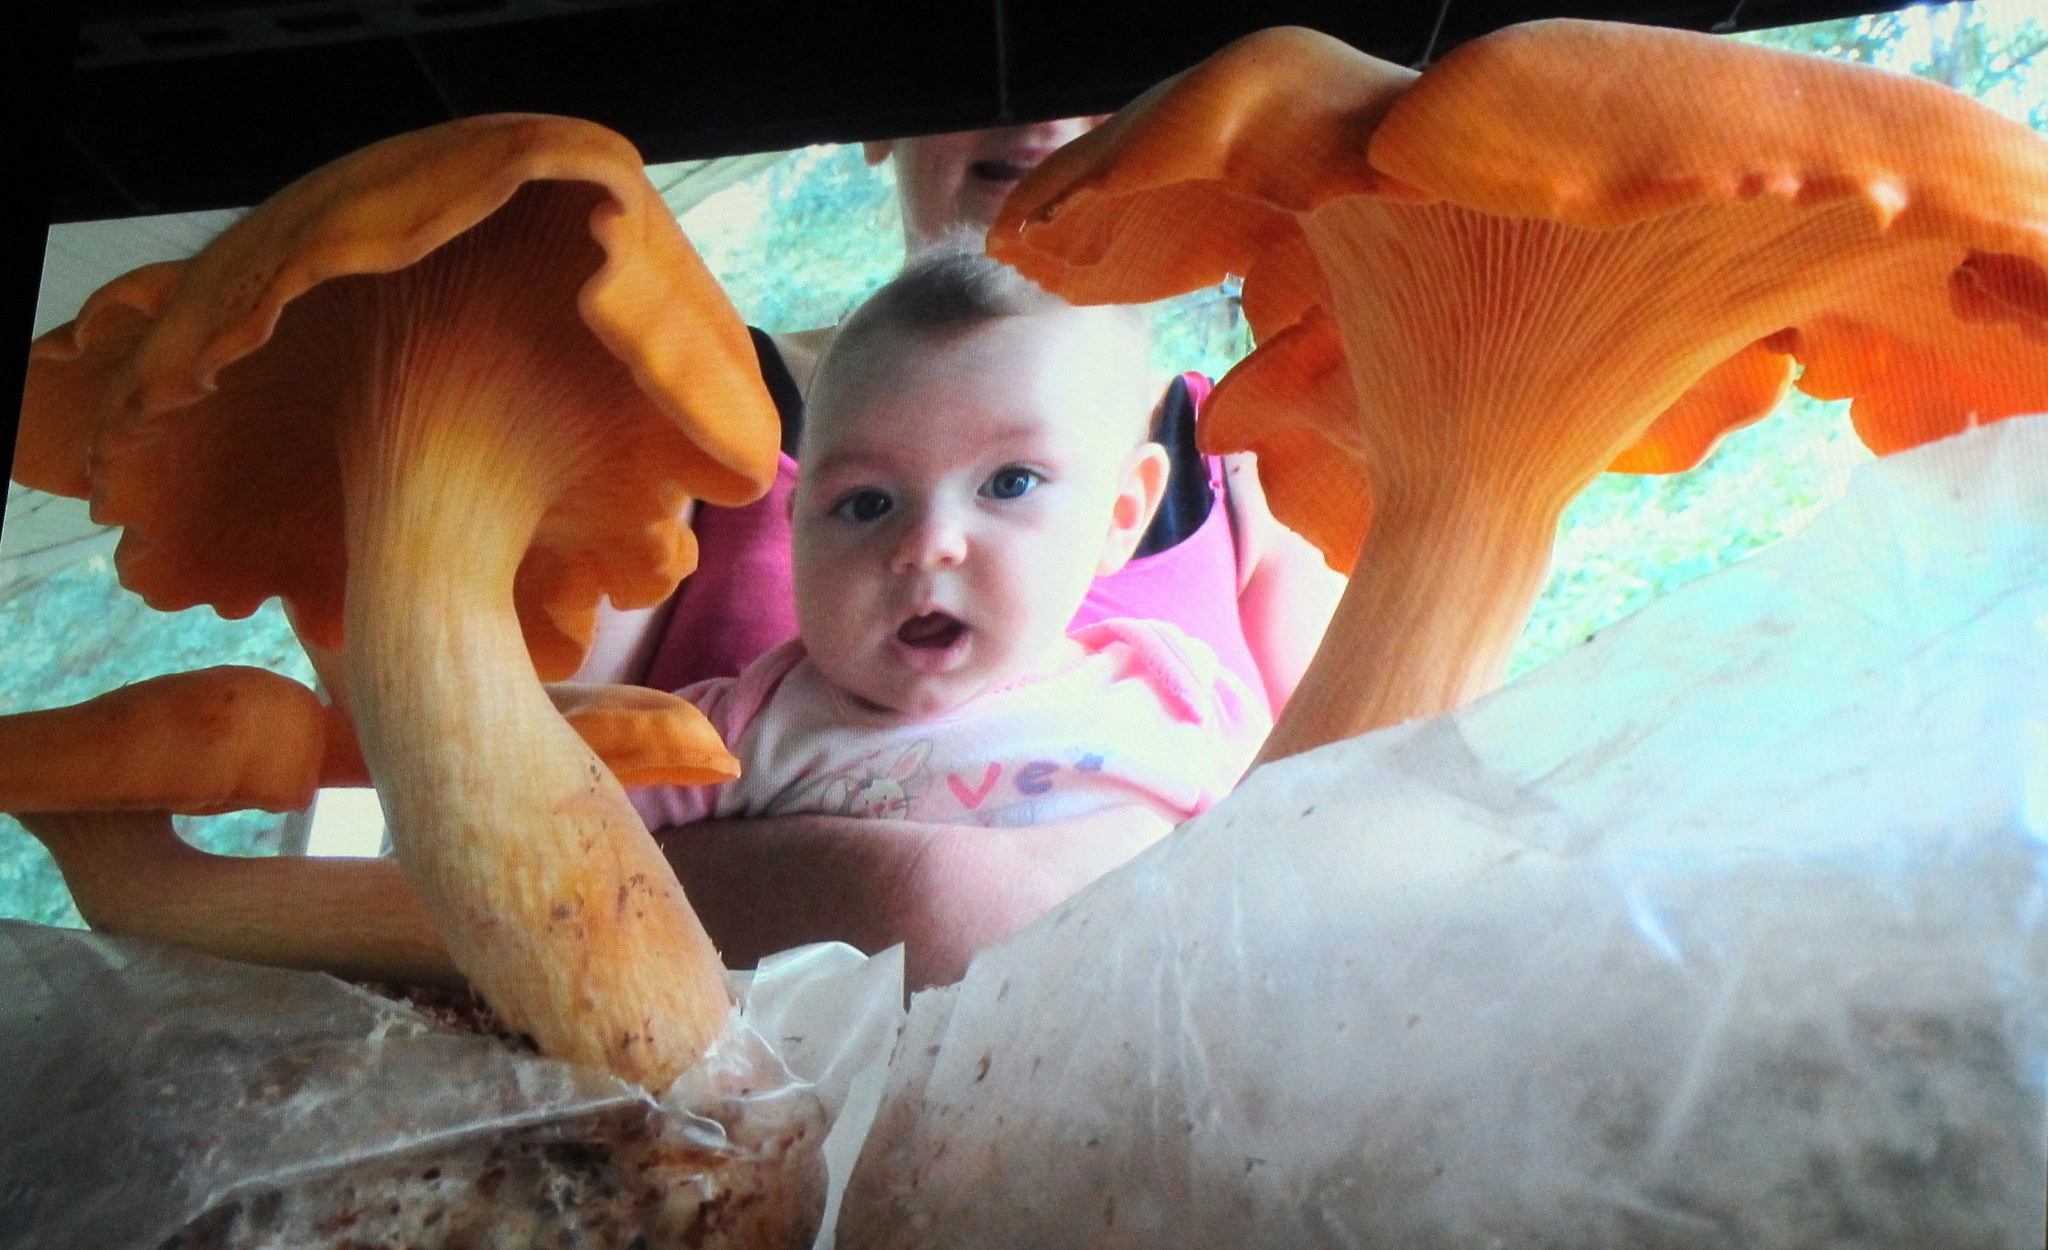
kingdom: Fungi
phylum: Basidiomycota
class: Agaricomycetes
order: Agaricales
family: Omphalotaceae
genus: Omphalotus
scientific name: Omphalotus illudens
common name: Jack o lantern
